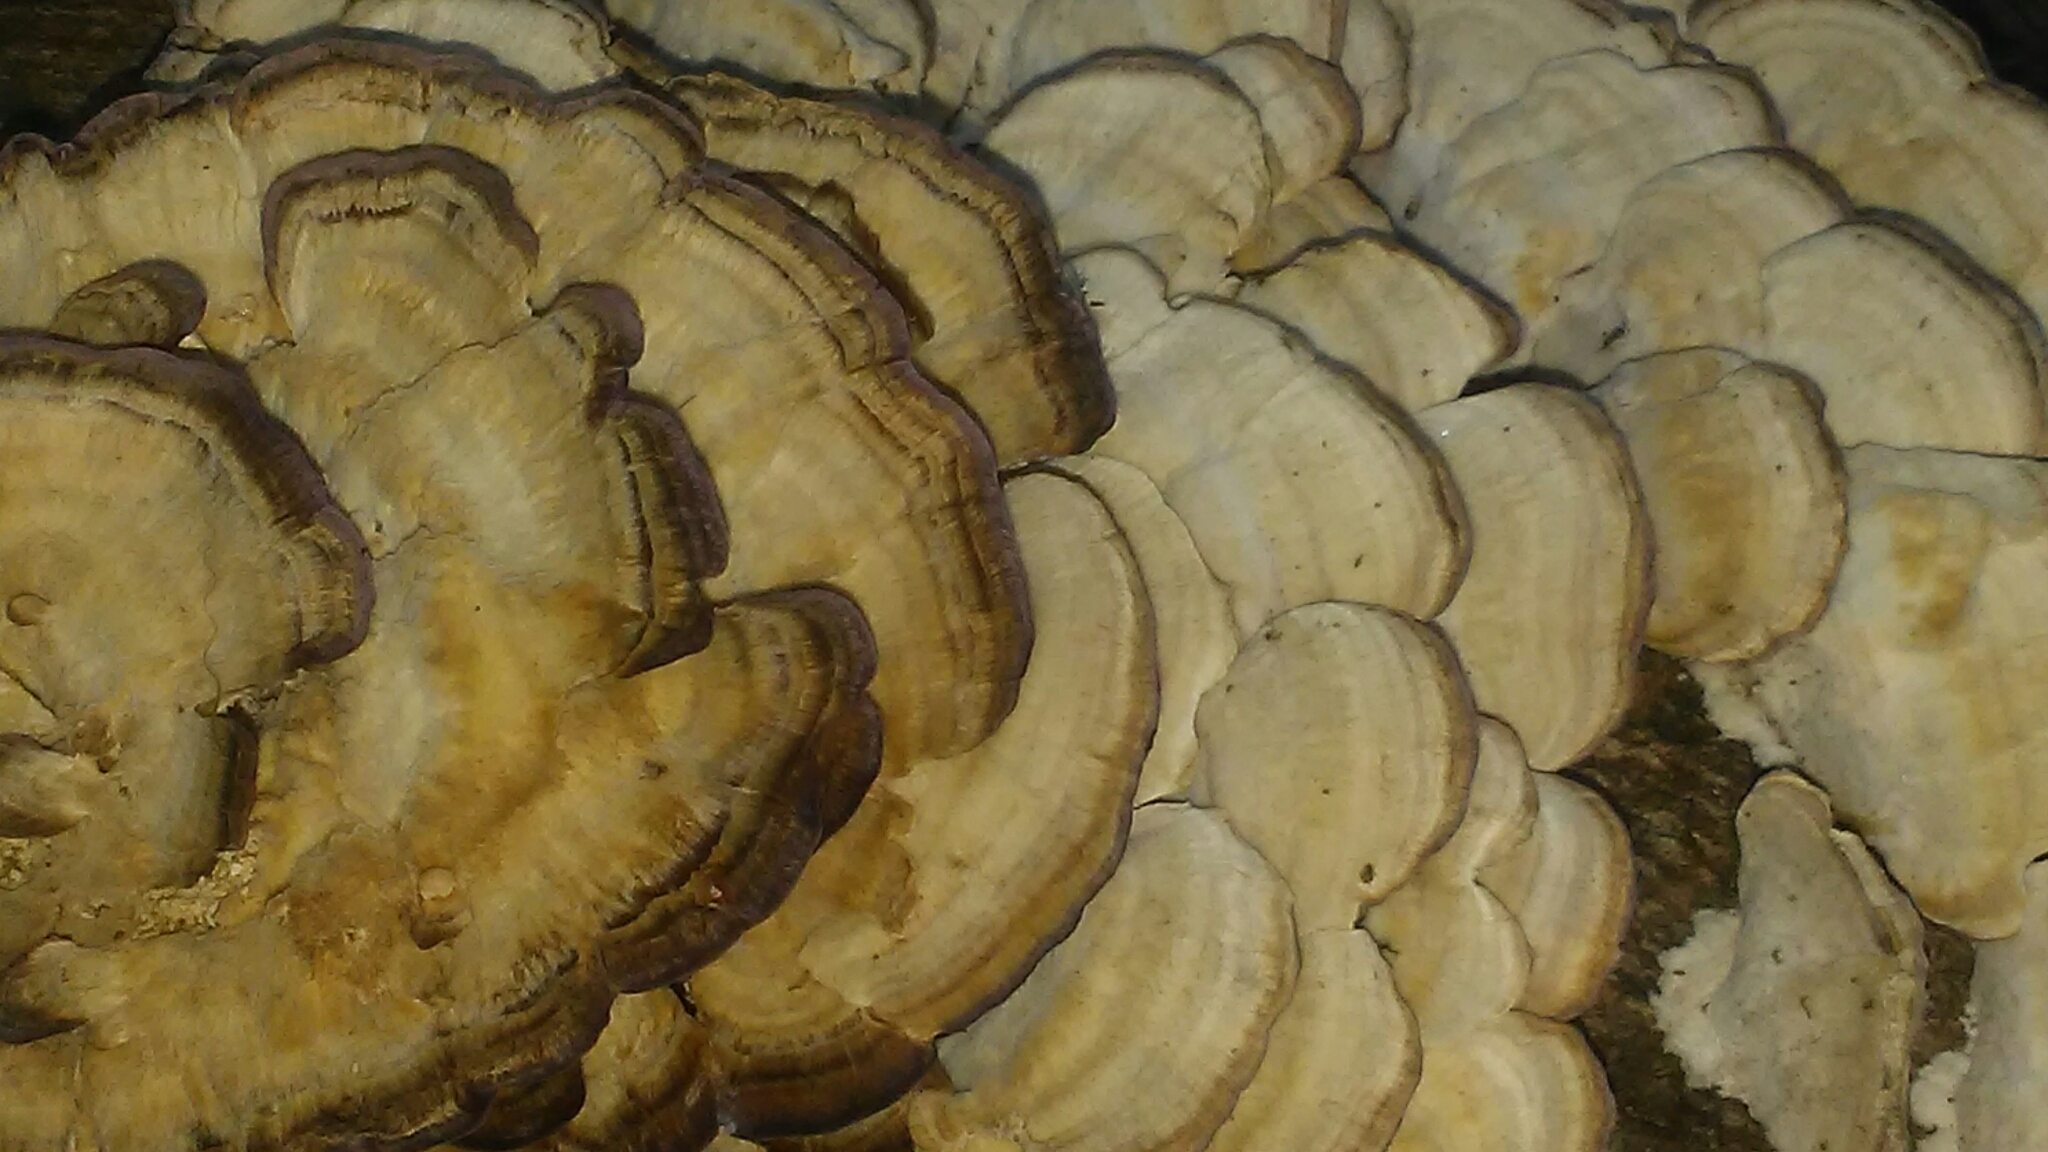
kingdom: Fungi
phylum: Basidiomycota
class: Agaricomycetes
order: Hymenochaetales
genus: Trichaptum
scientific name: Trichaptum biforme
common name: Violet-toothed polypore
